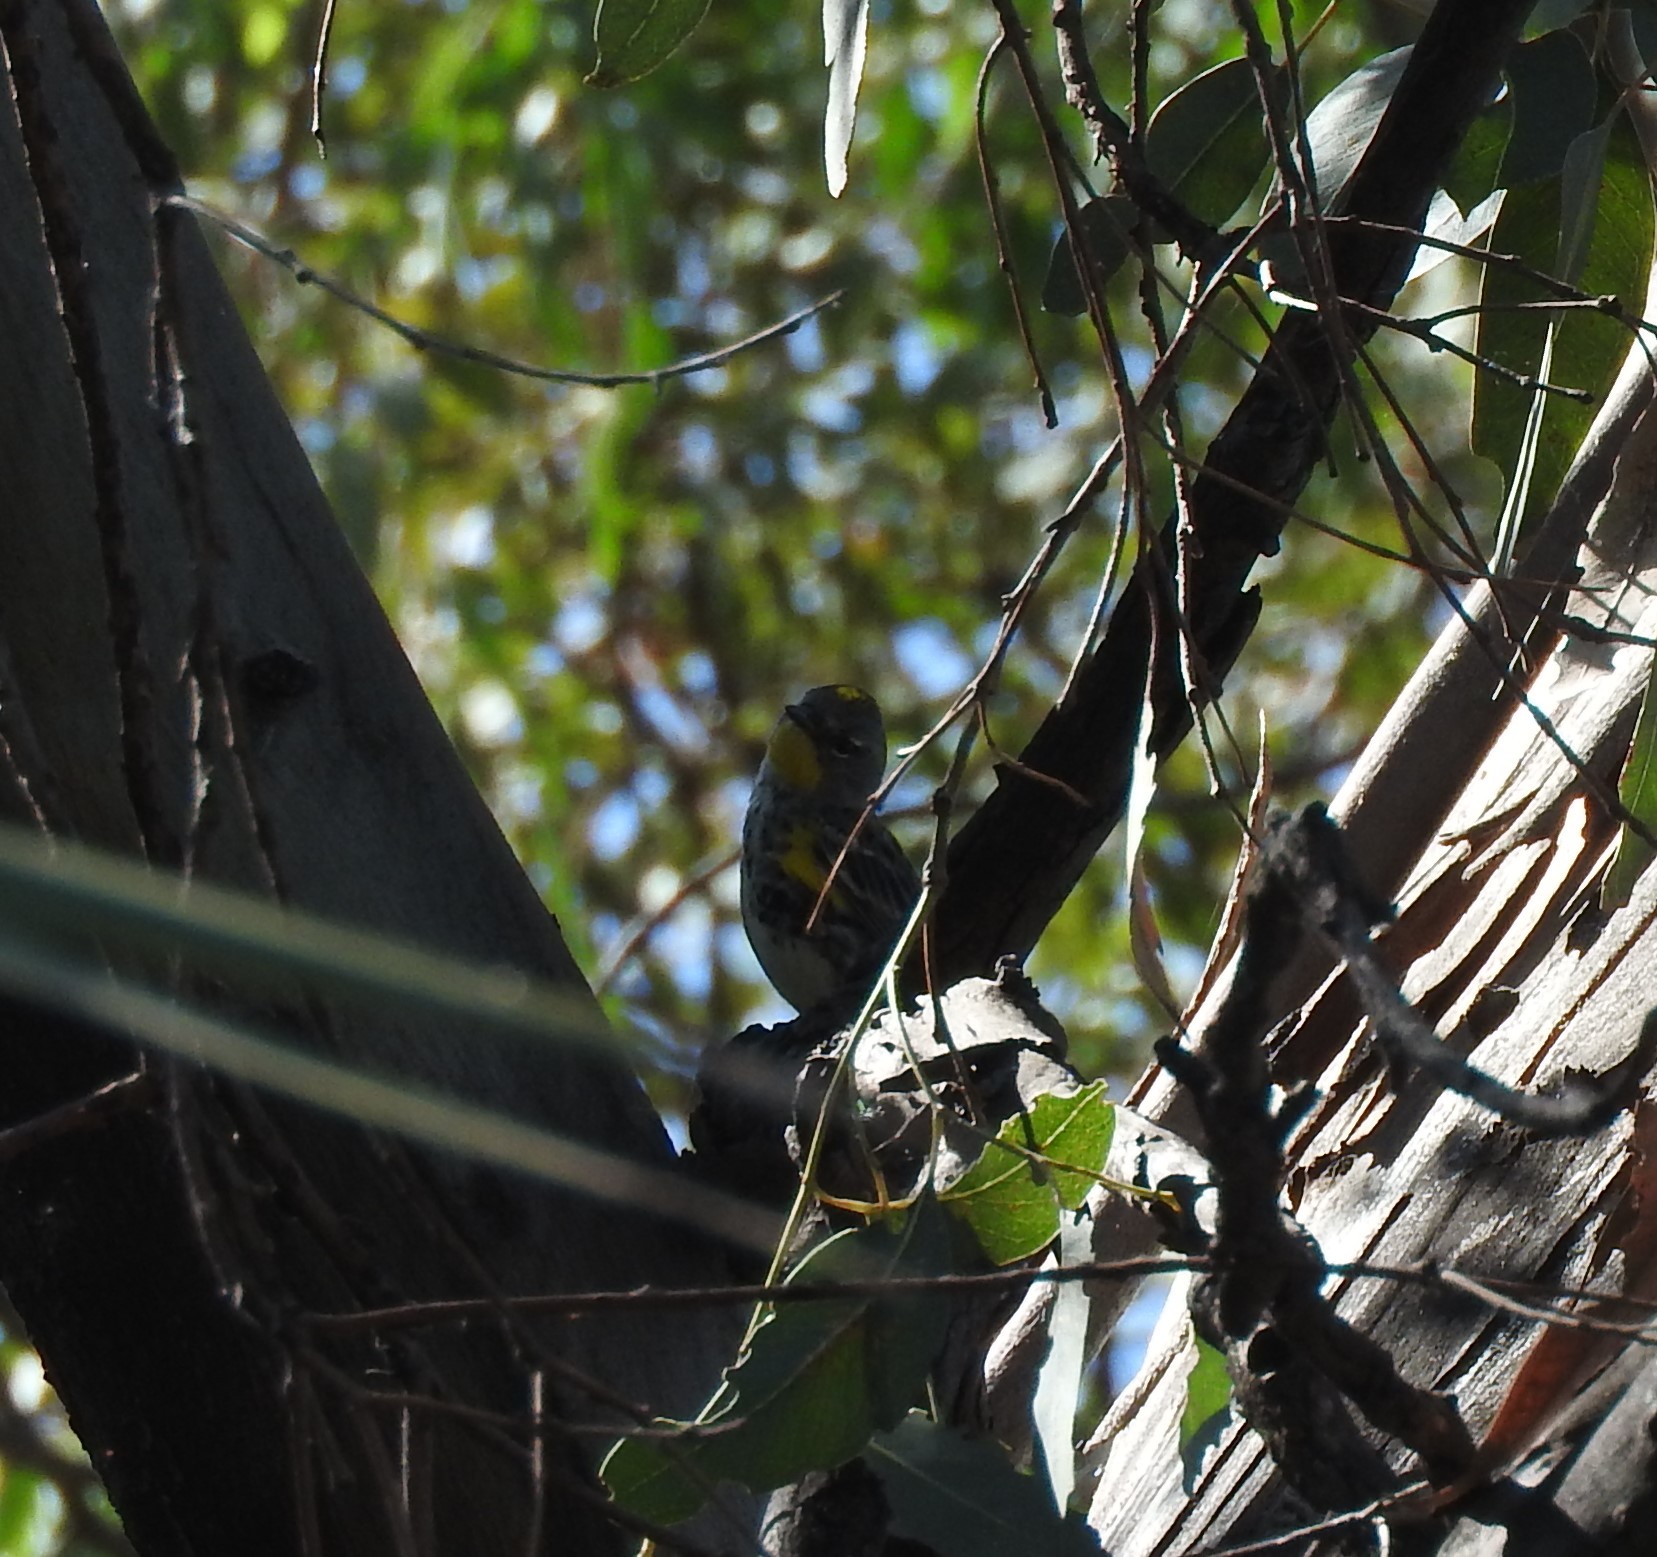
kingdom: Animalia
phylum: Chordata
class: Aves
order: Passeriformes
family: Parulidae
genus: Setophaga
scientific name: Setophaga coronata
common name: Myrtle warbler
